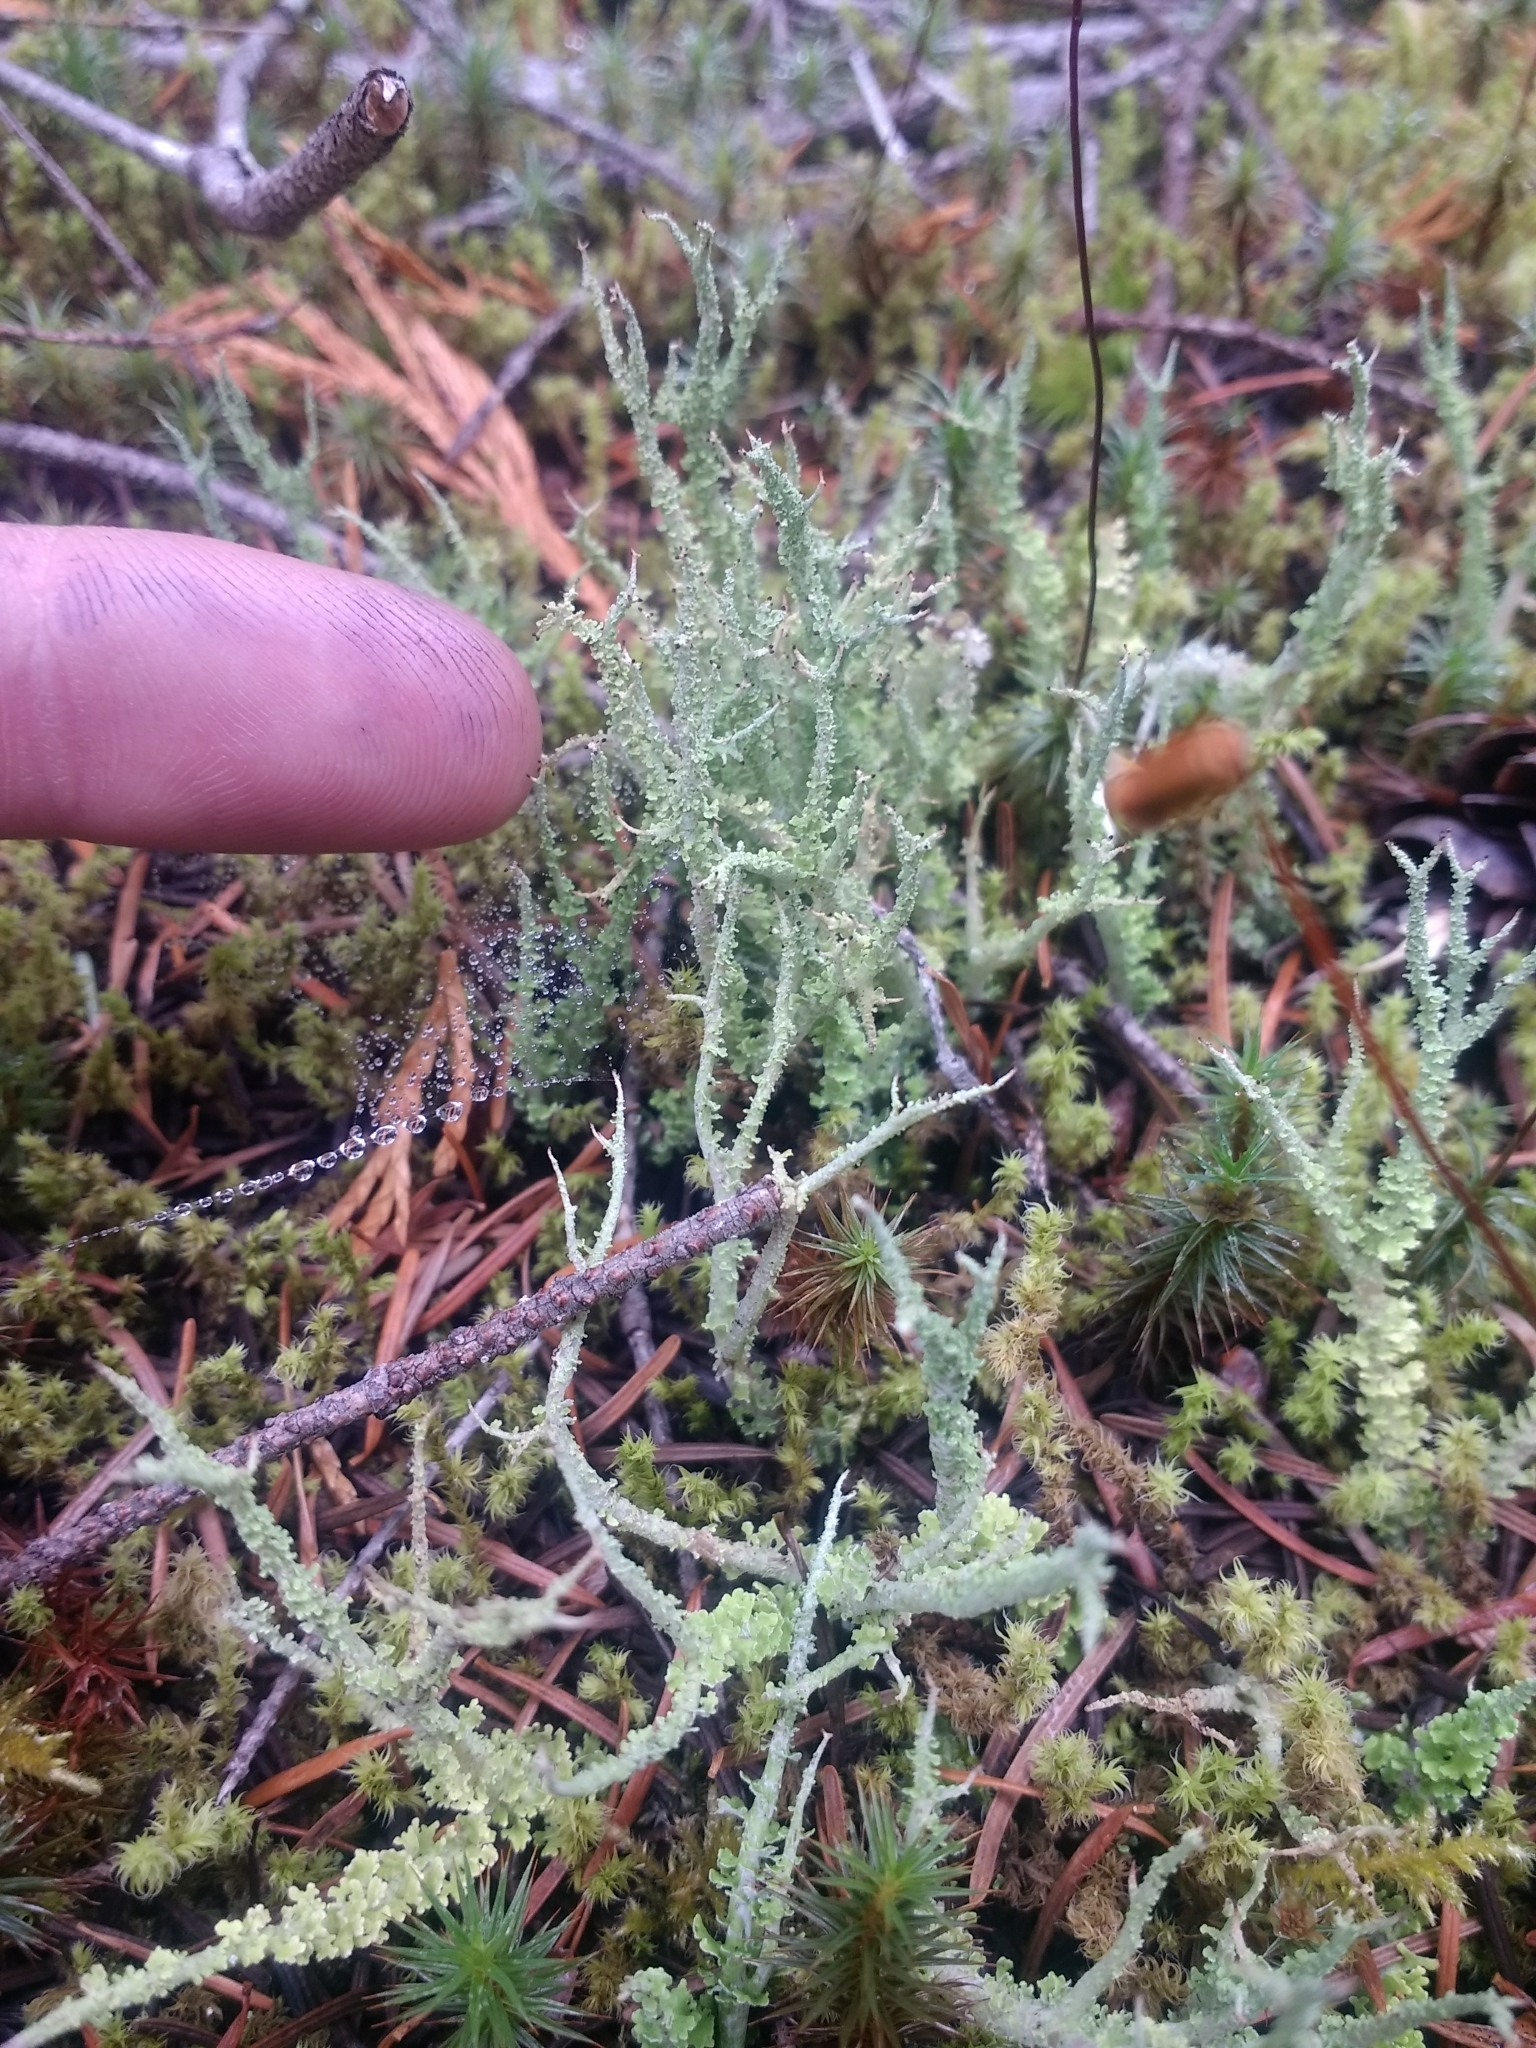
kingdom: Fungi
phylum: Ascomycota
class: Lecanoromycetes
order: Lecanorales
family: Cladoniaceae
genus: Cladonia
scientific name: Cladonia squamosa
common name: Dragon horn
